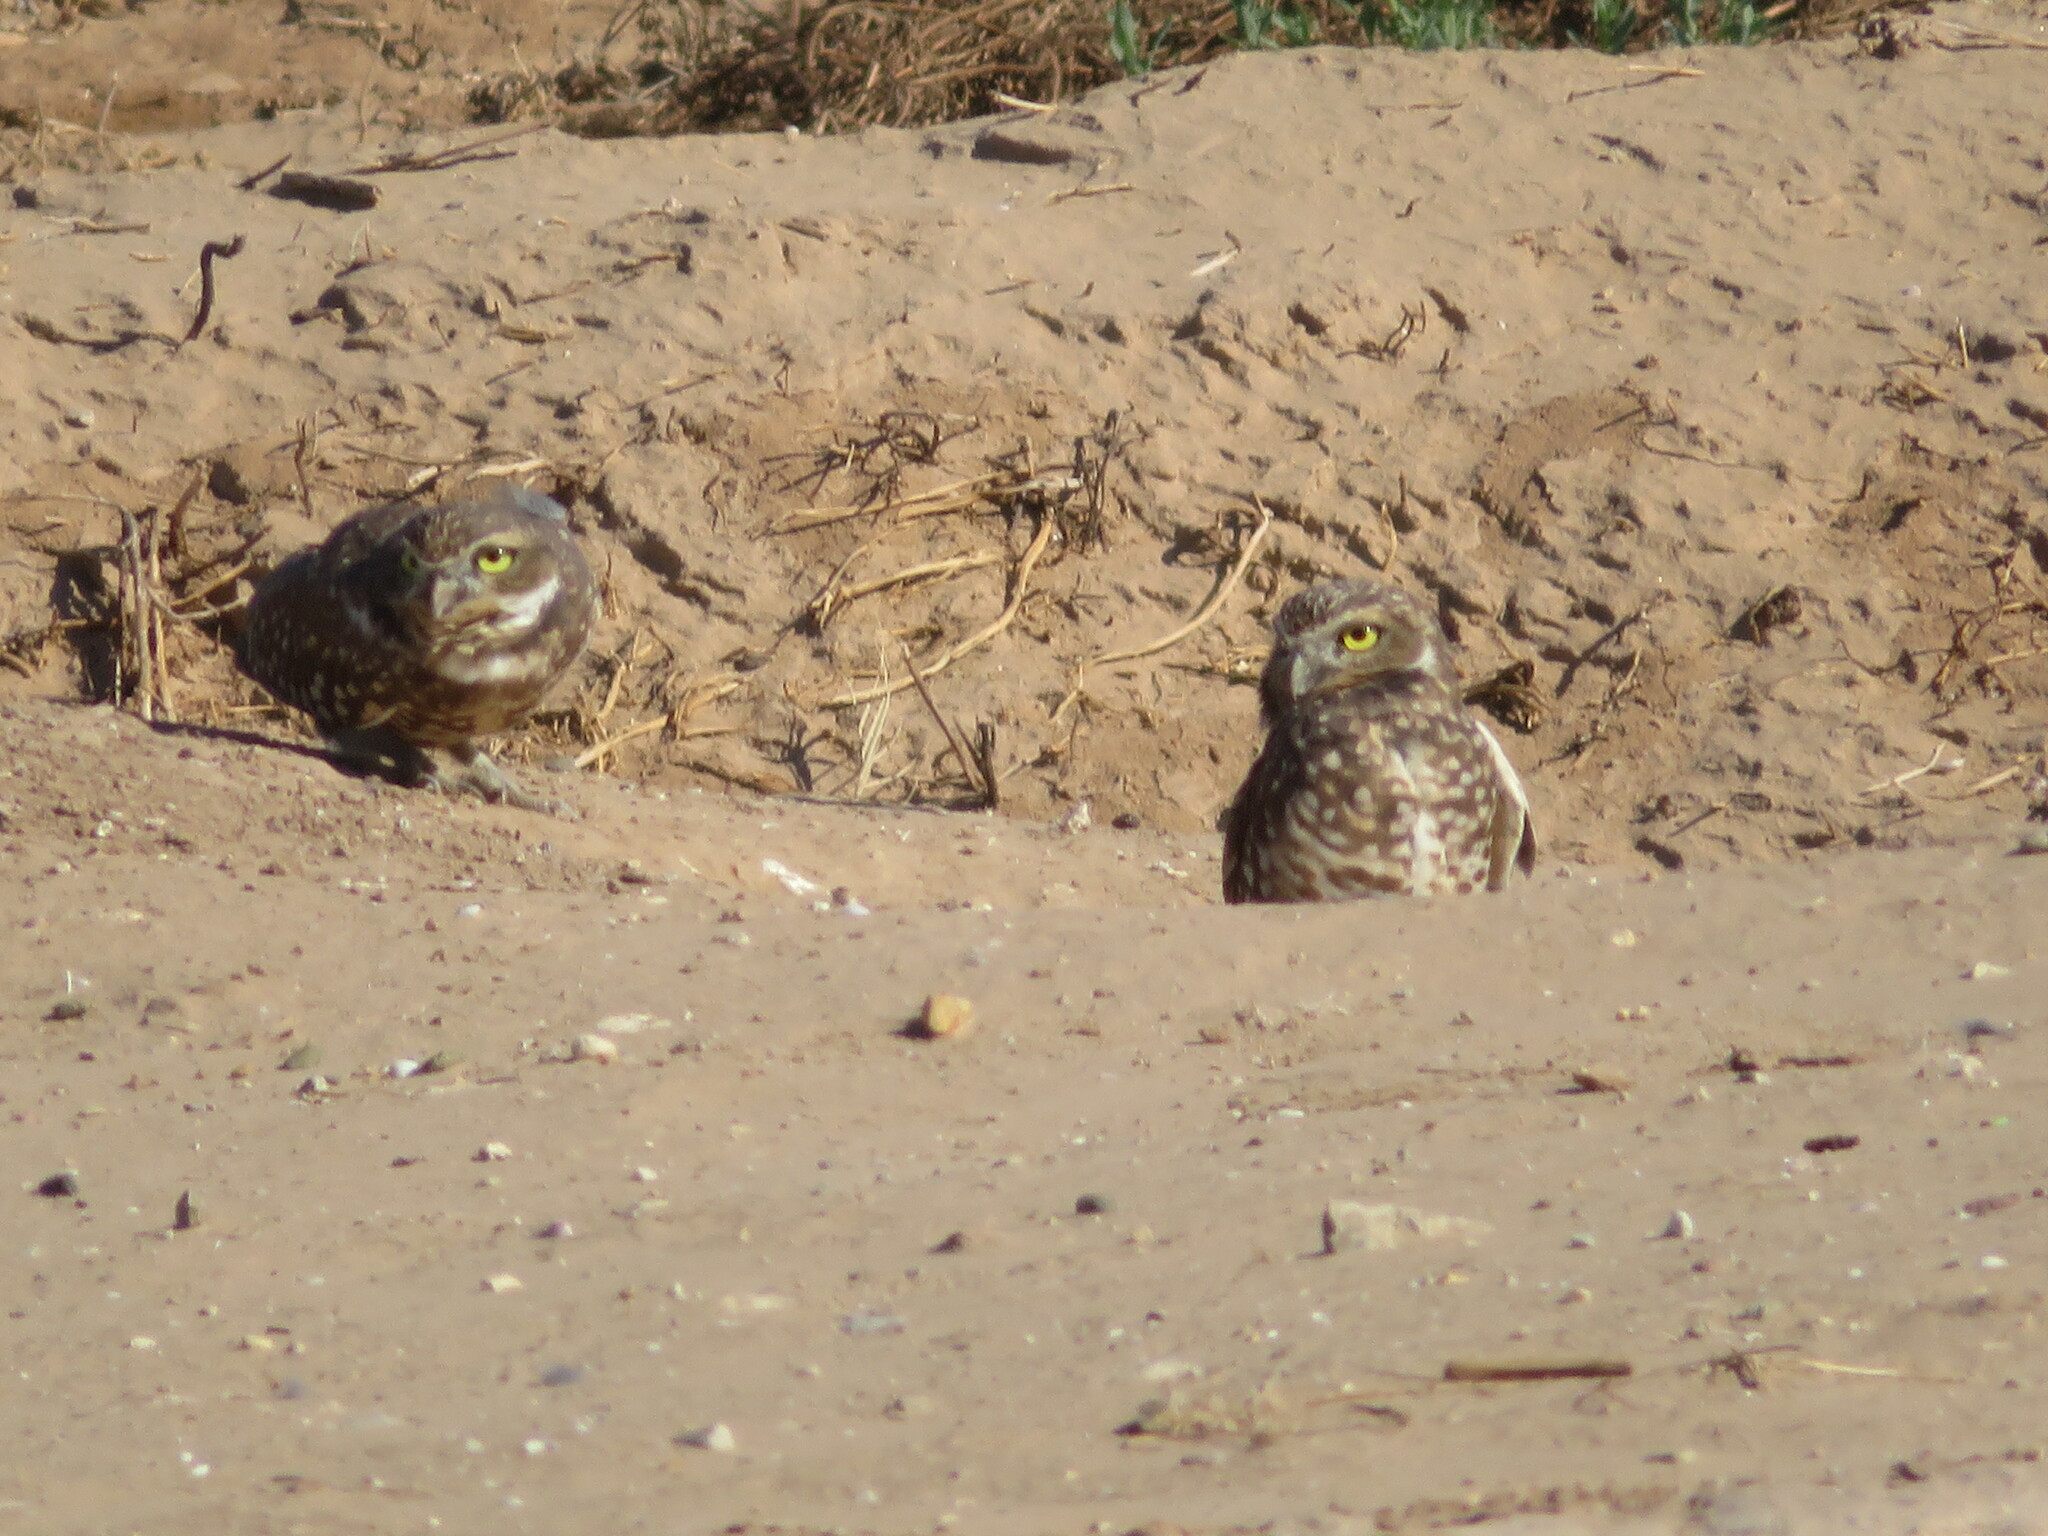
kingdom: Animalia
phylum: Chordata
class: Aves
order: Strigiformes
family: Strigidae
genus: Athene
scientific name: Athene cunicularia
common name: Burrowing owl
